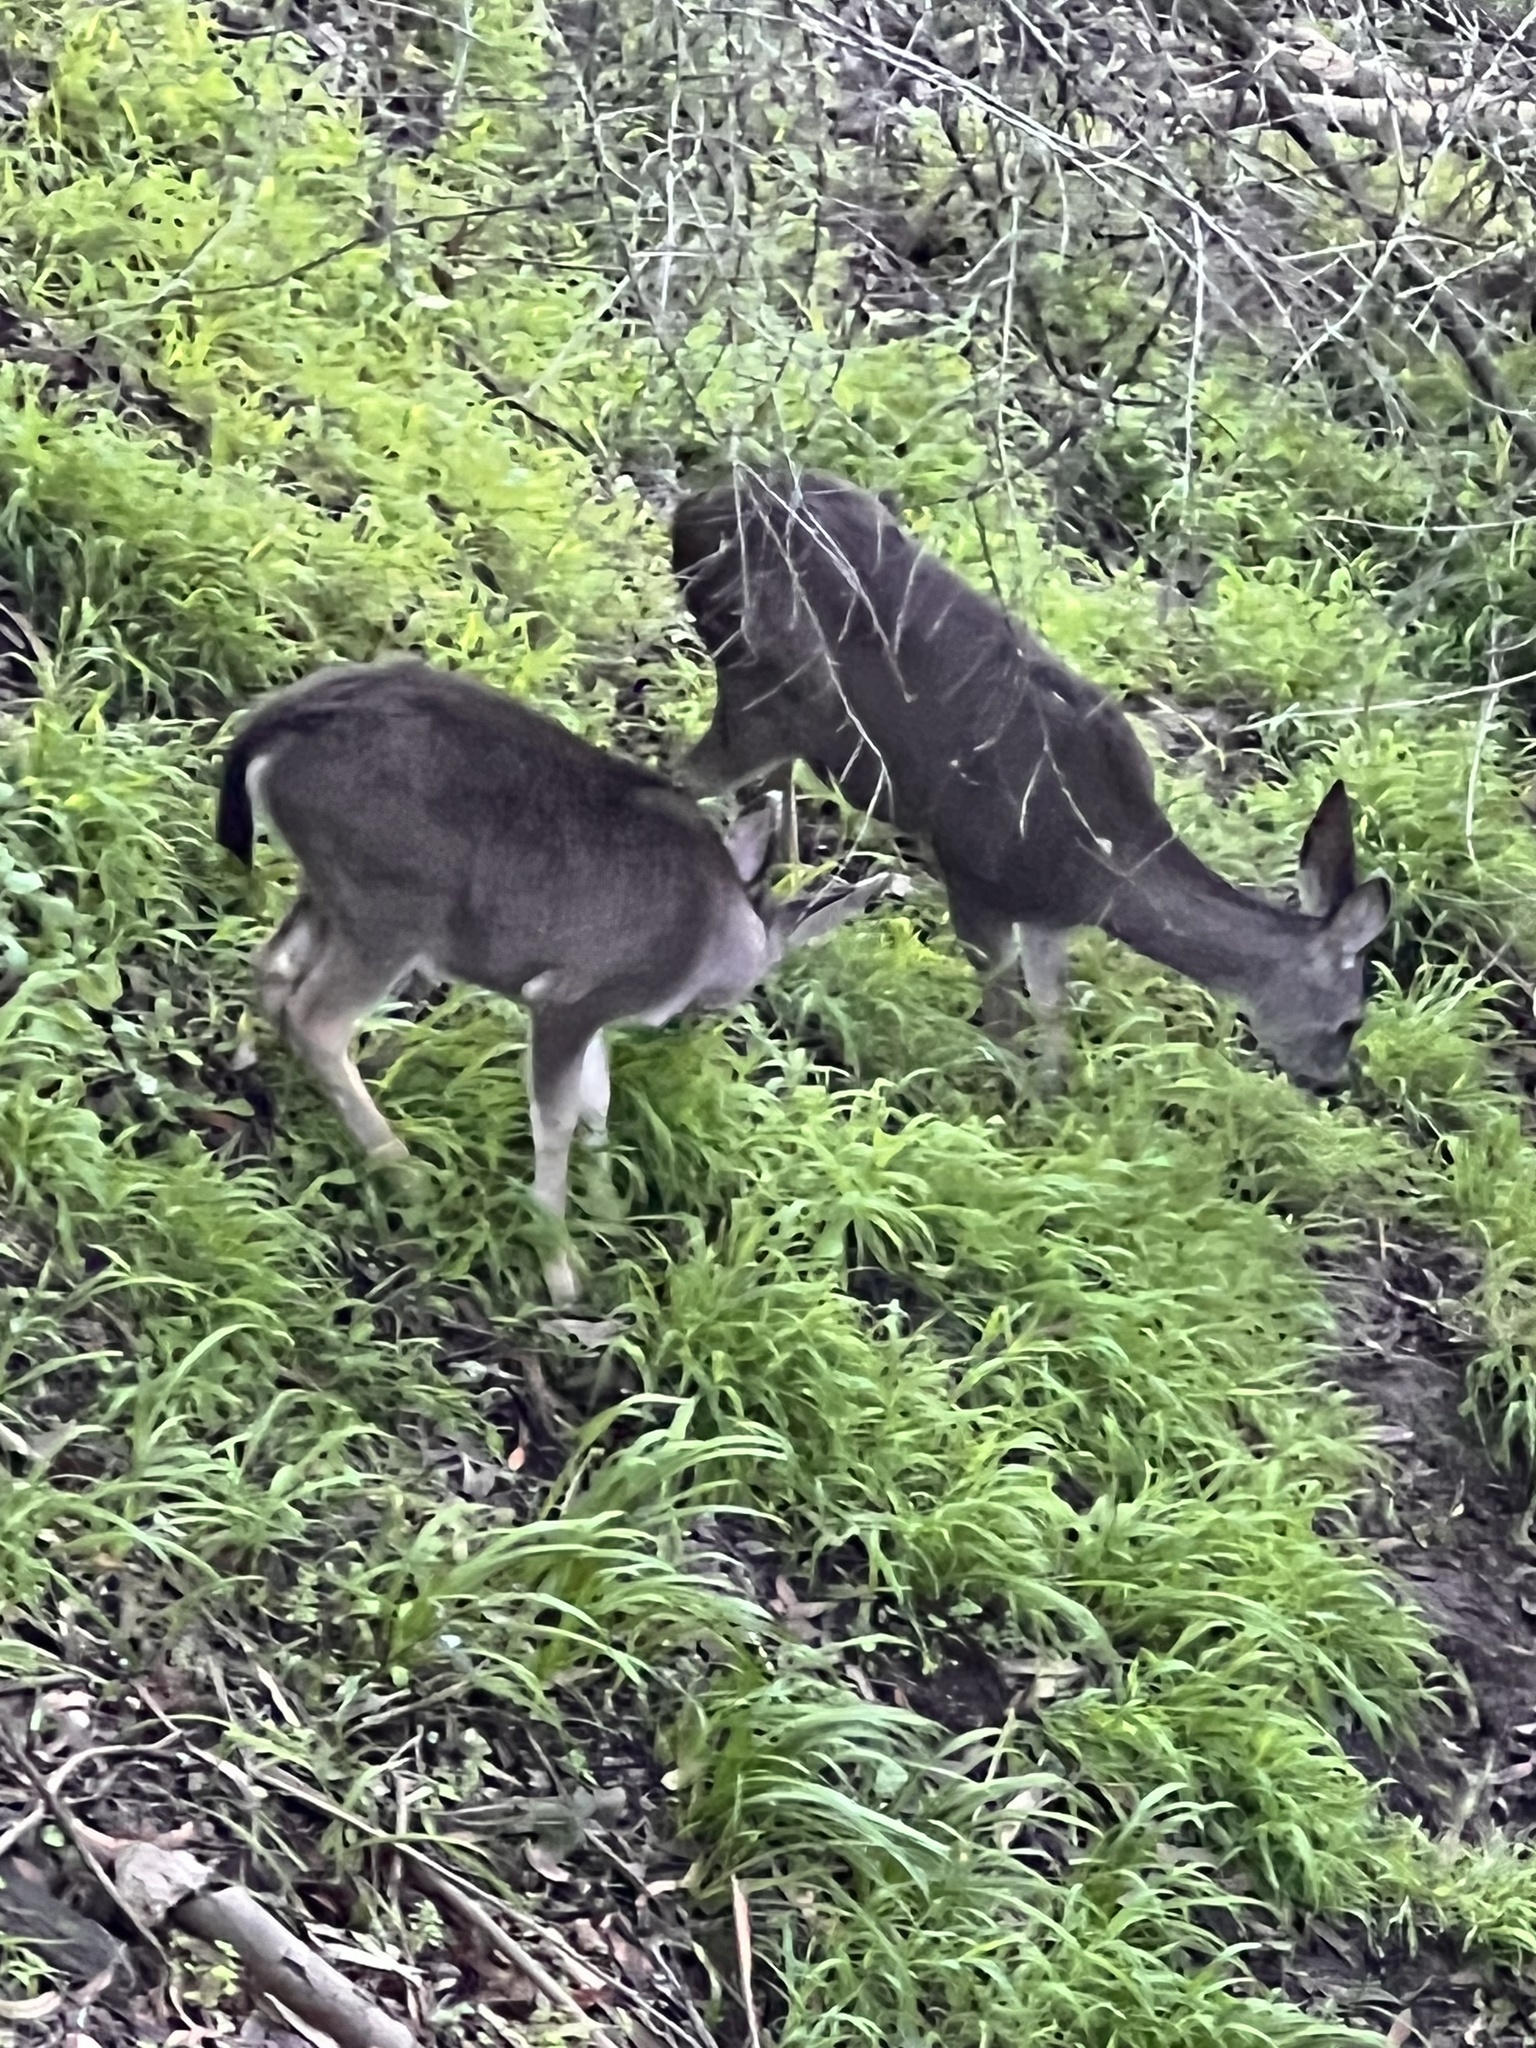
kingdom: Animalia
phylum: Chordata
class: Mammalia
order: Artiodactyla
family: Cervidae
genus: Odocoileus
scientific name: Odocoileus hemionus
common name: Mule deer
